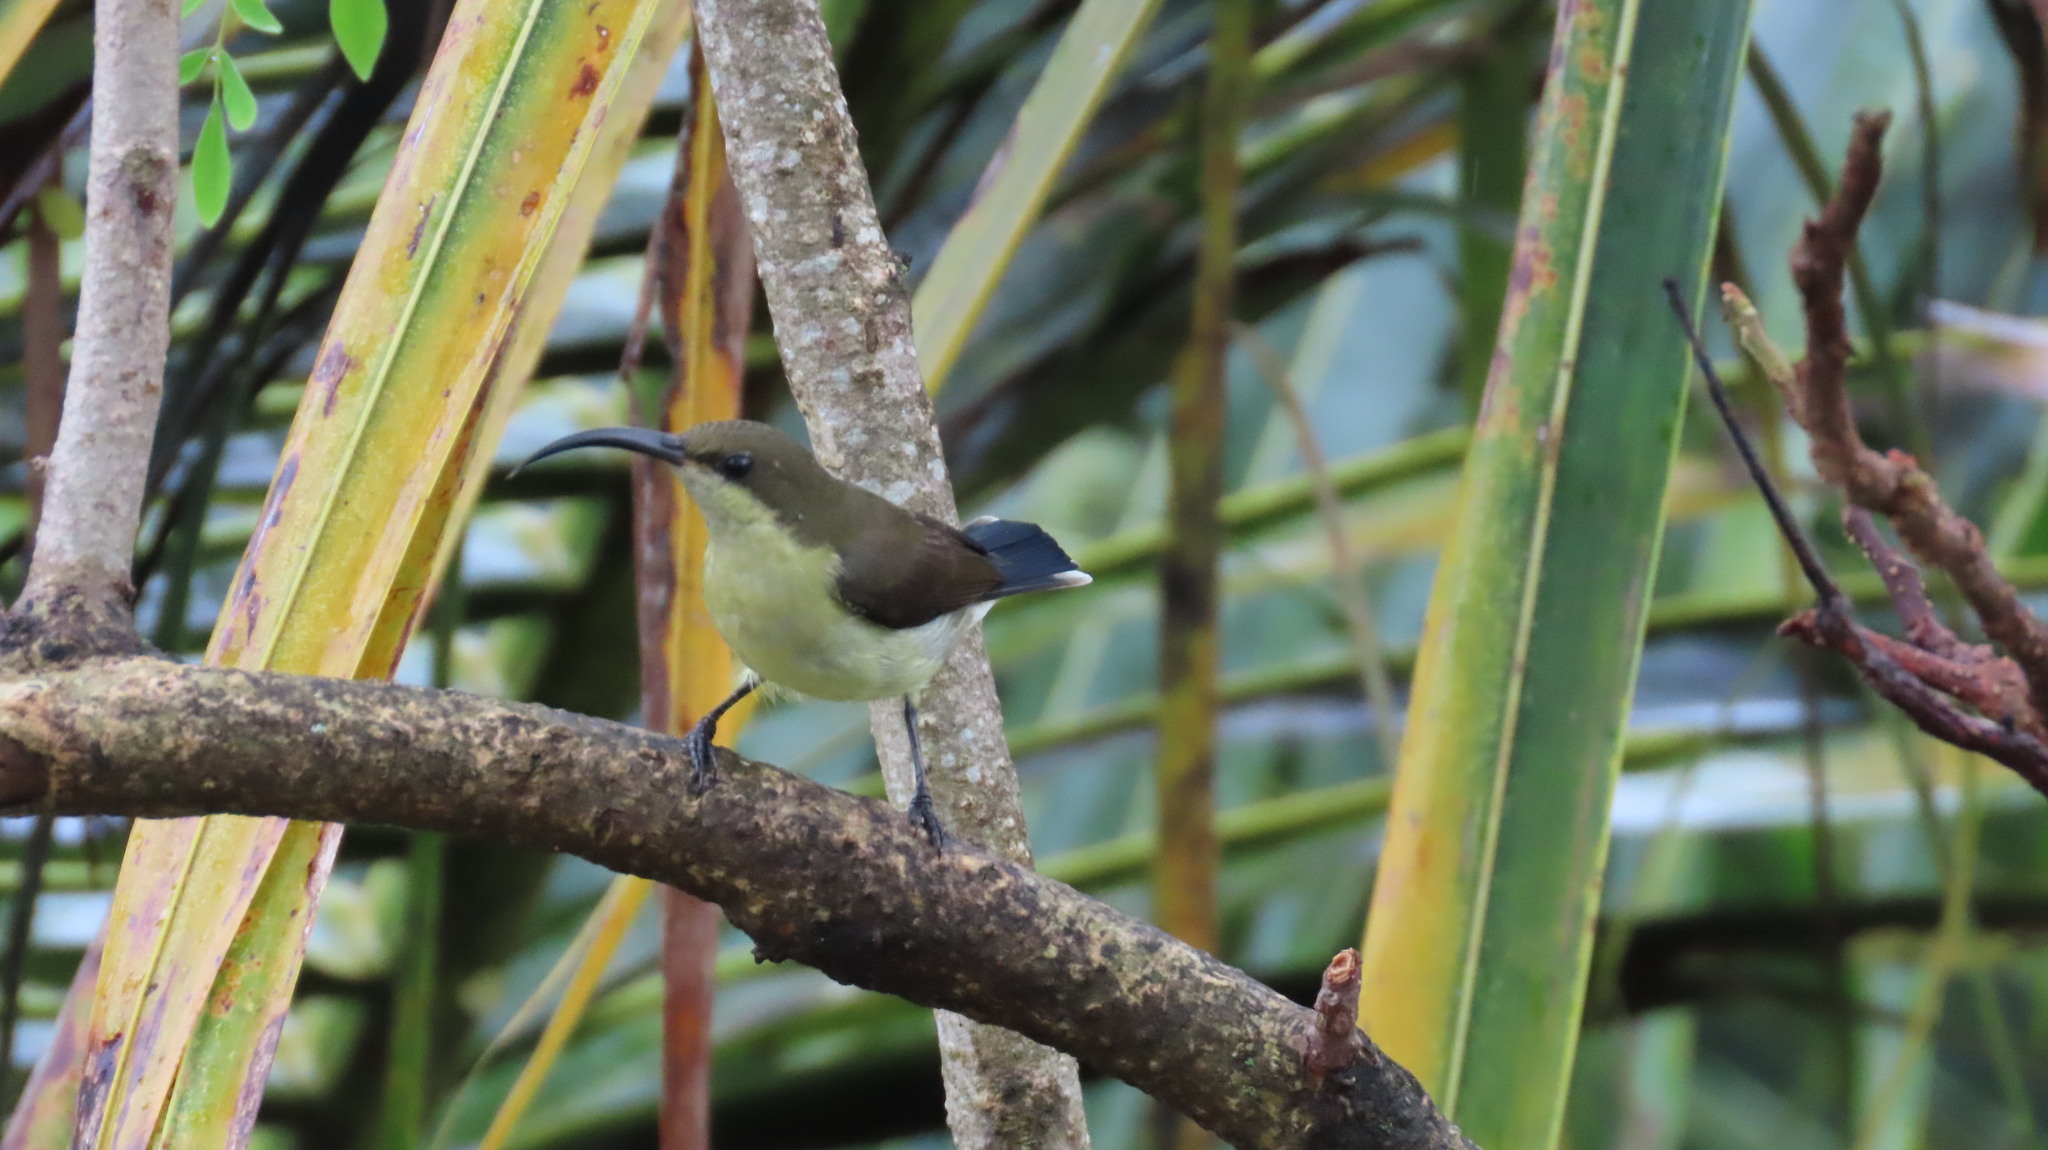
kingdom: Animalia
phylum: Chordata
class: Aves
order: Passeriformes
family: Nectariniidae
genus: Cinnyris
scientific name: Cinnyris lotenius
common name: Loten's sunbird
